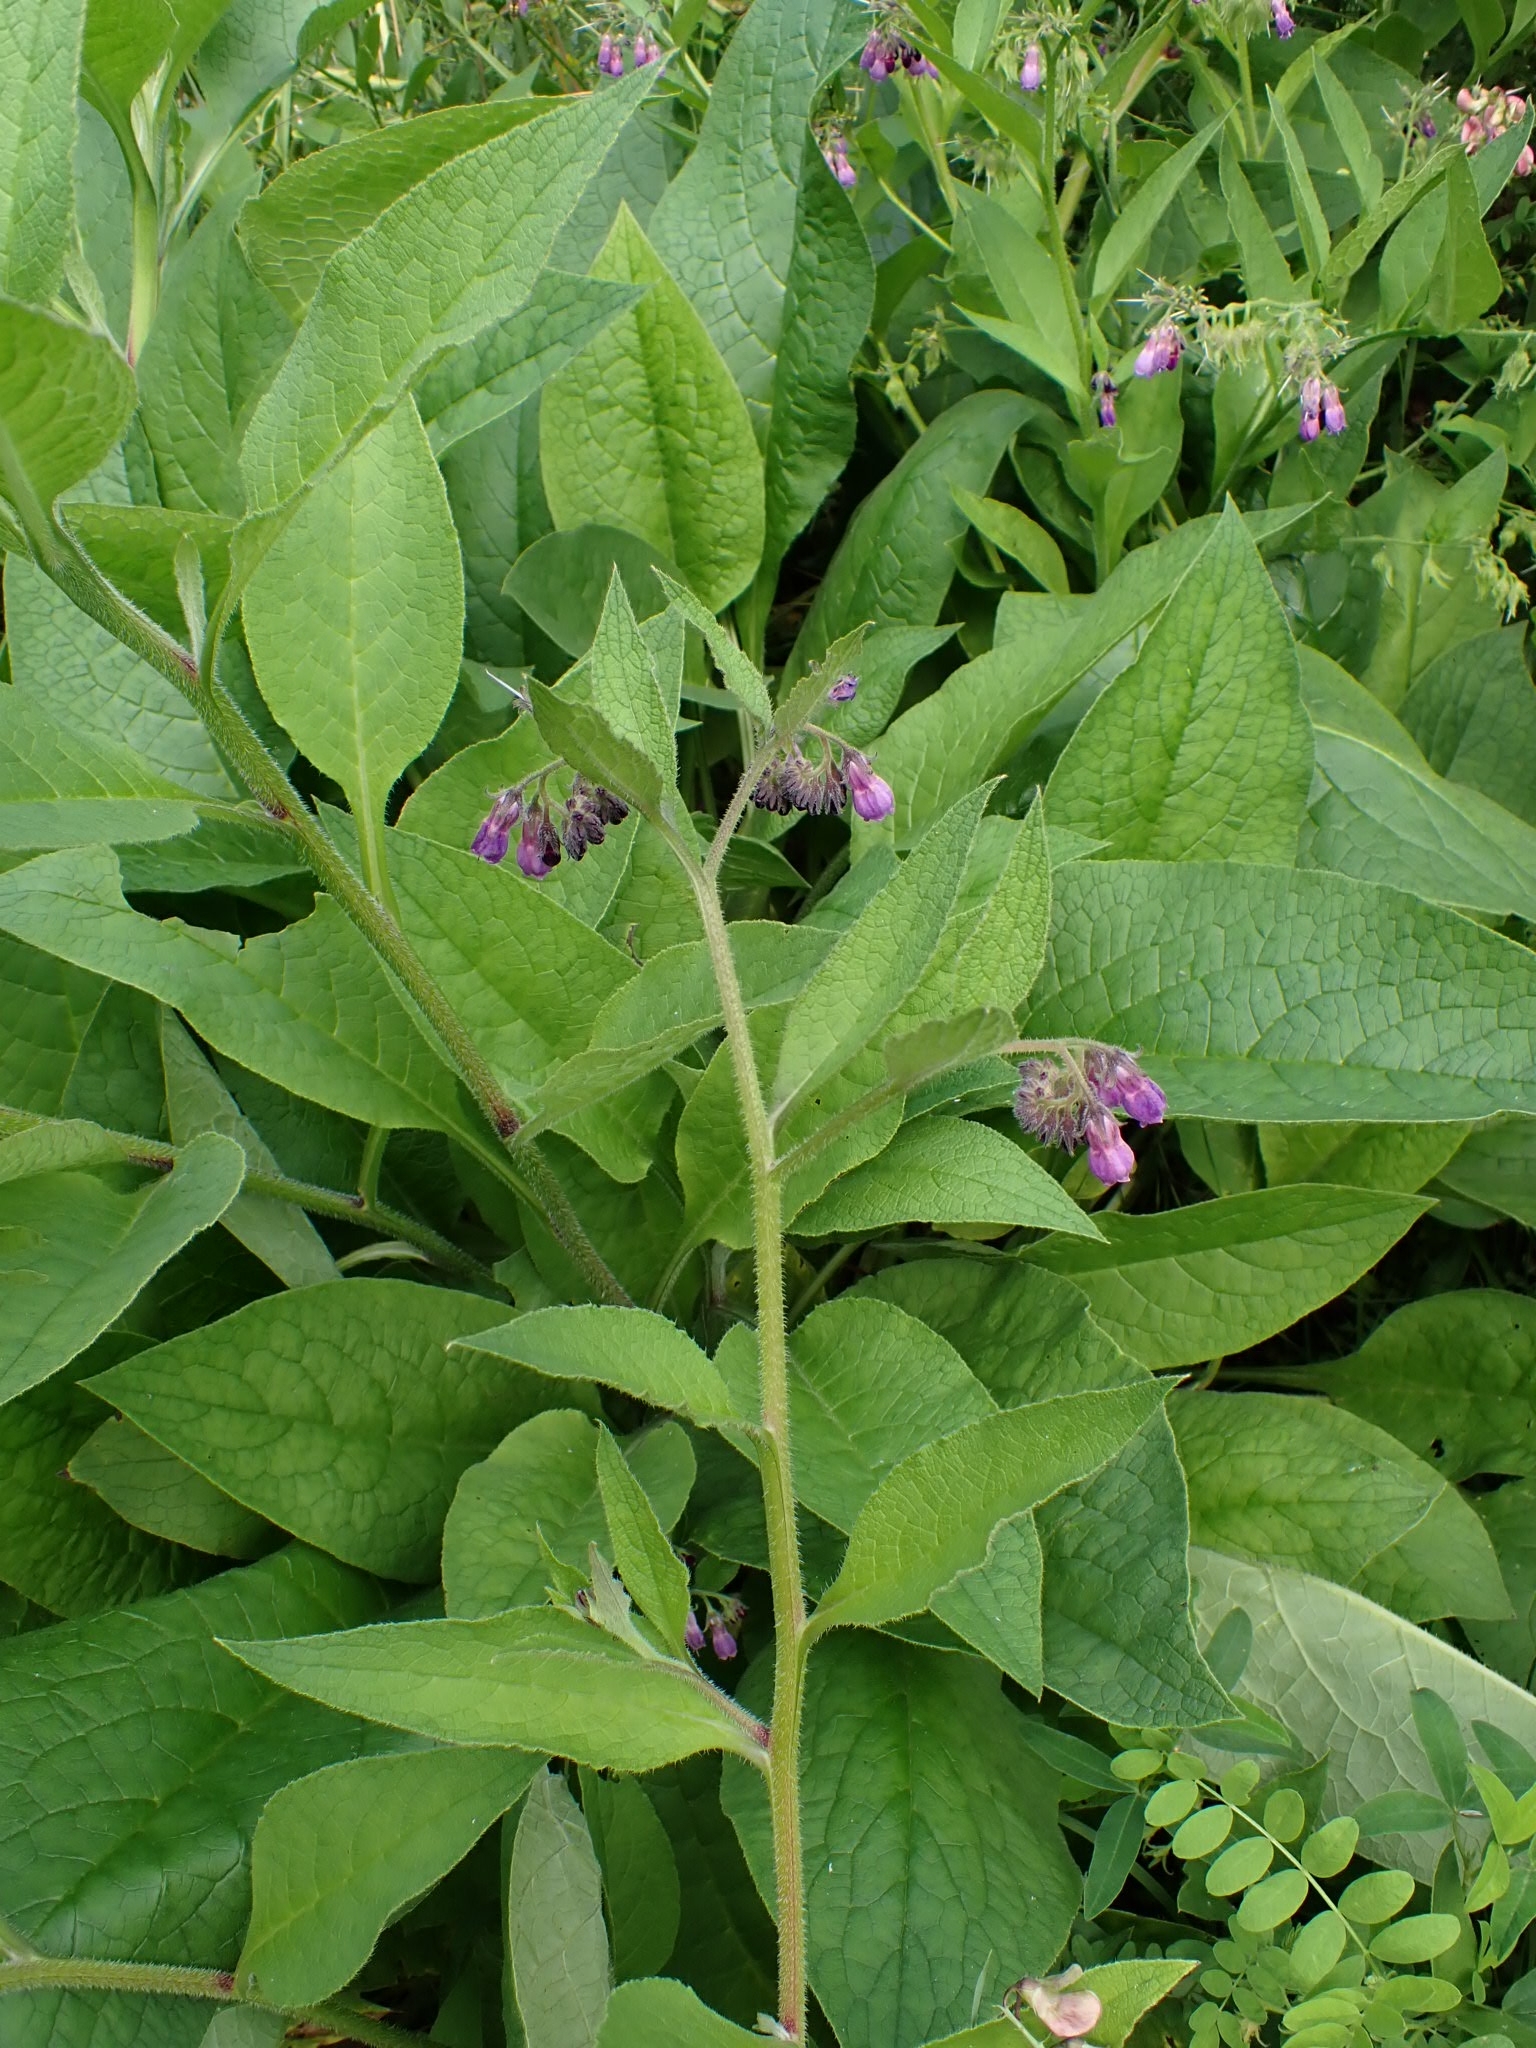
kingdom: Plantae
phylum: Tracheophyta
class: Magnoliopsida
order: Boraginales
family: Boraginaceae
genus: Symphytum
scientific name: Symphytum officinale
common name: Common comfrey
